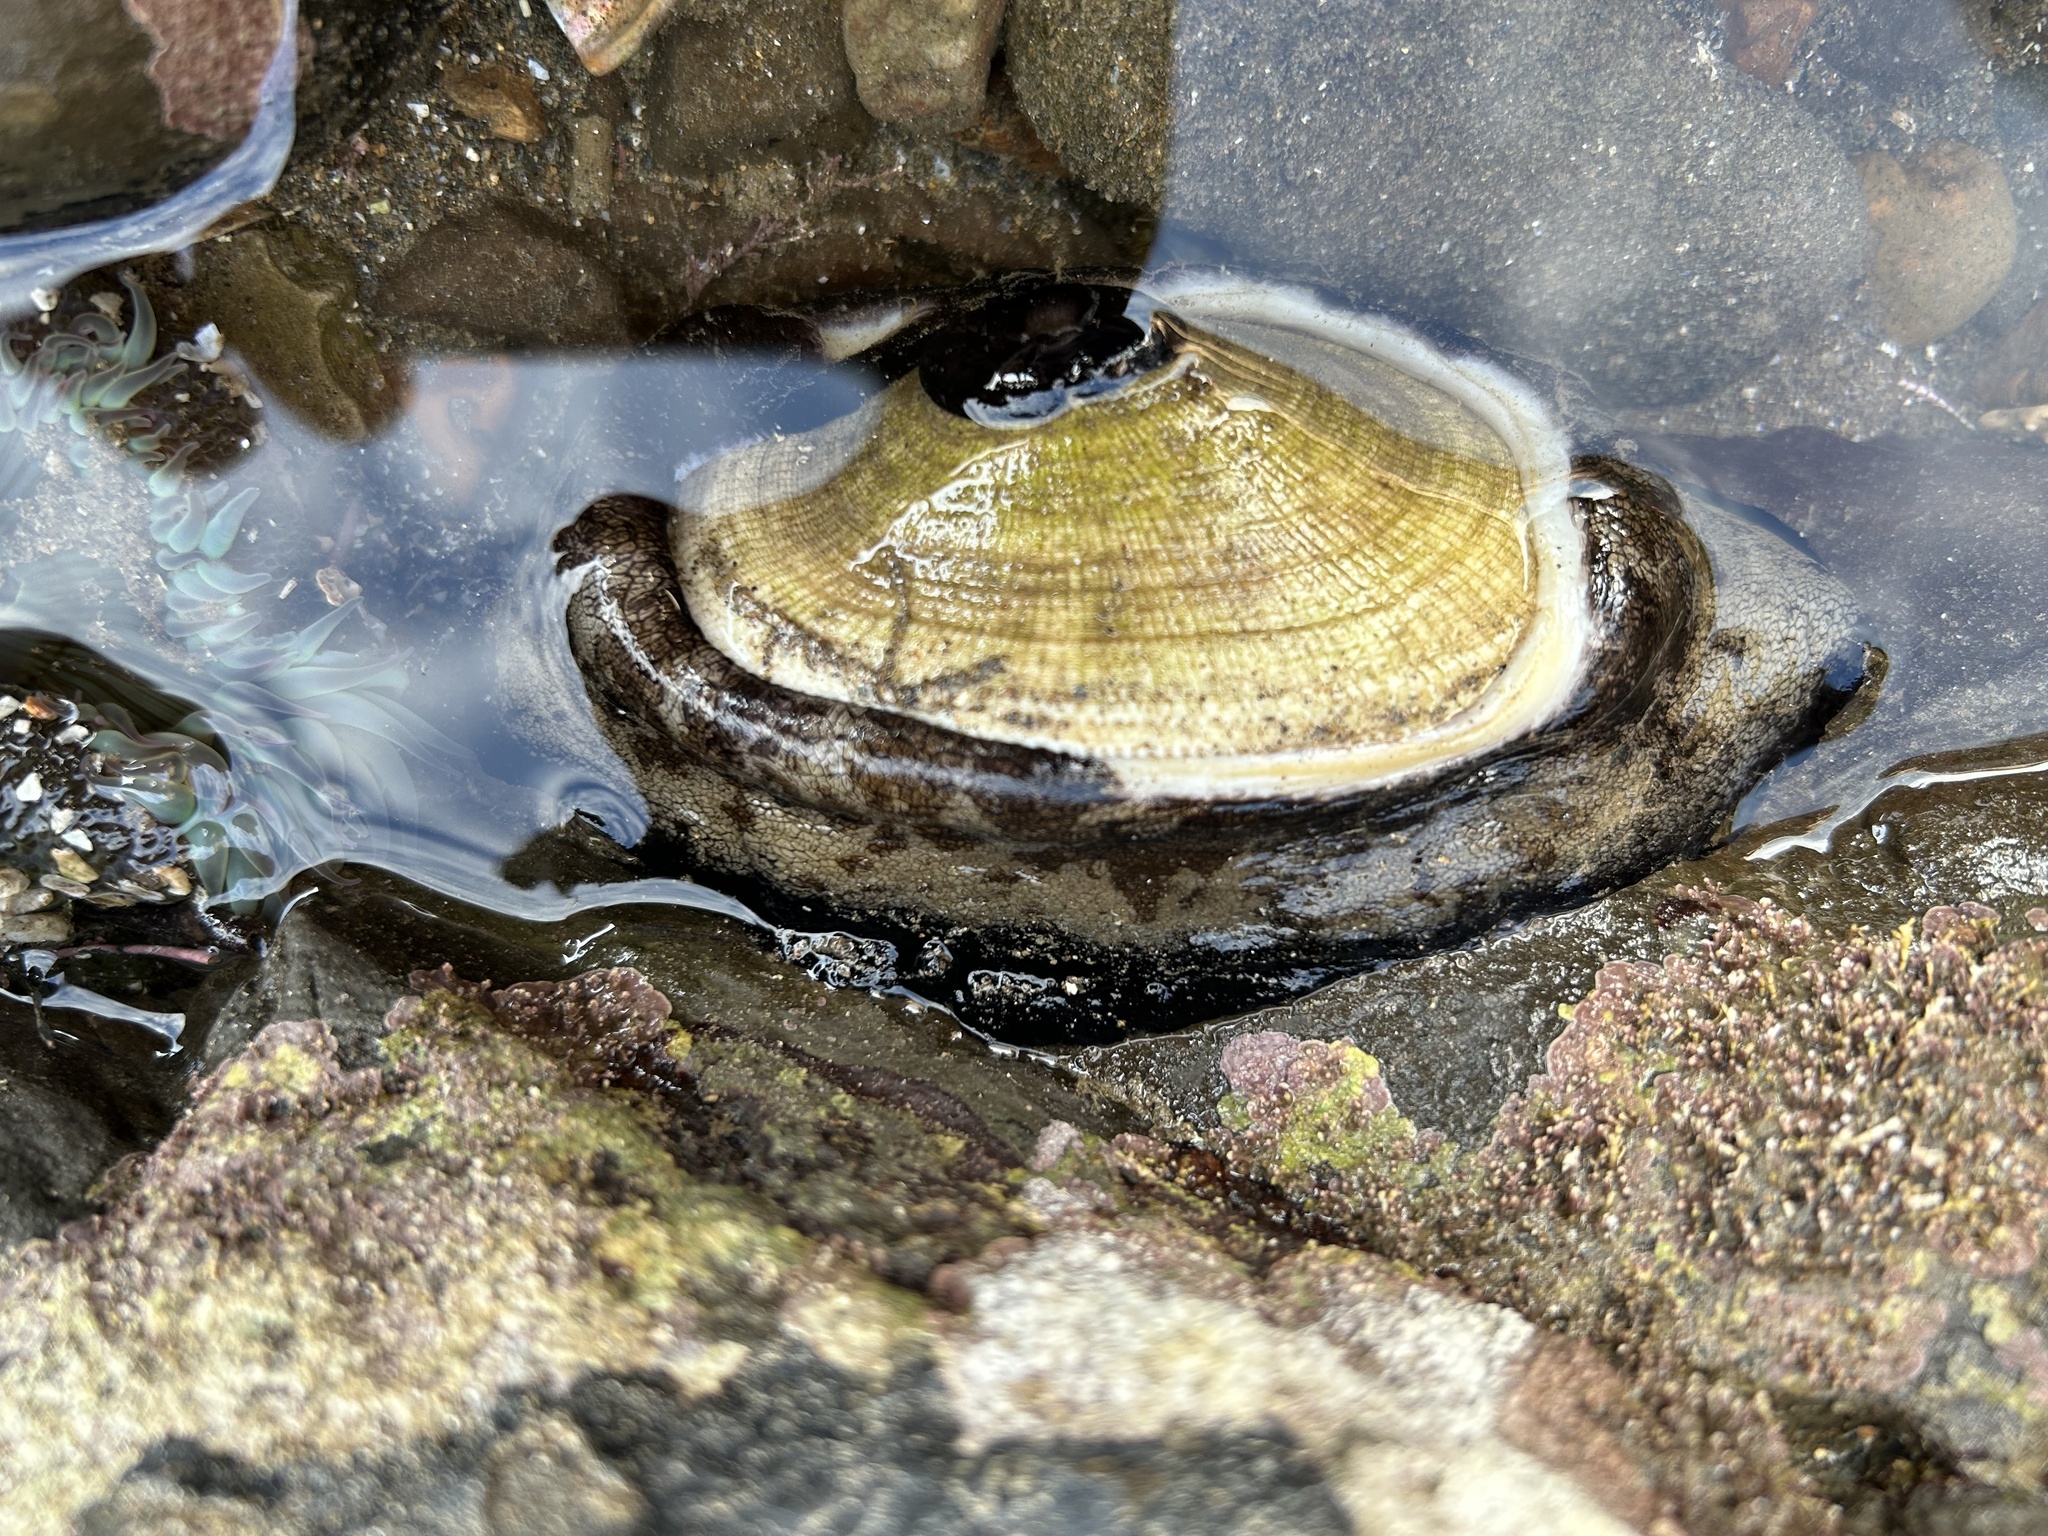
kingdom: Animalia
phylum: Mollusca
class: Gastropoda
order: Lepetellida
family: Fissurellidae
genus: Megathura
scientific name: Megathura crenulata
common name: Giant keyhole limpet
